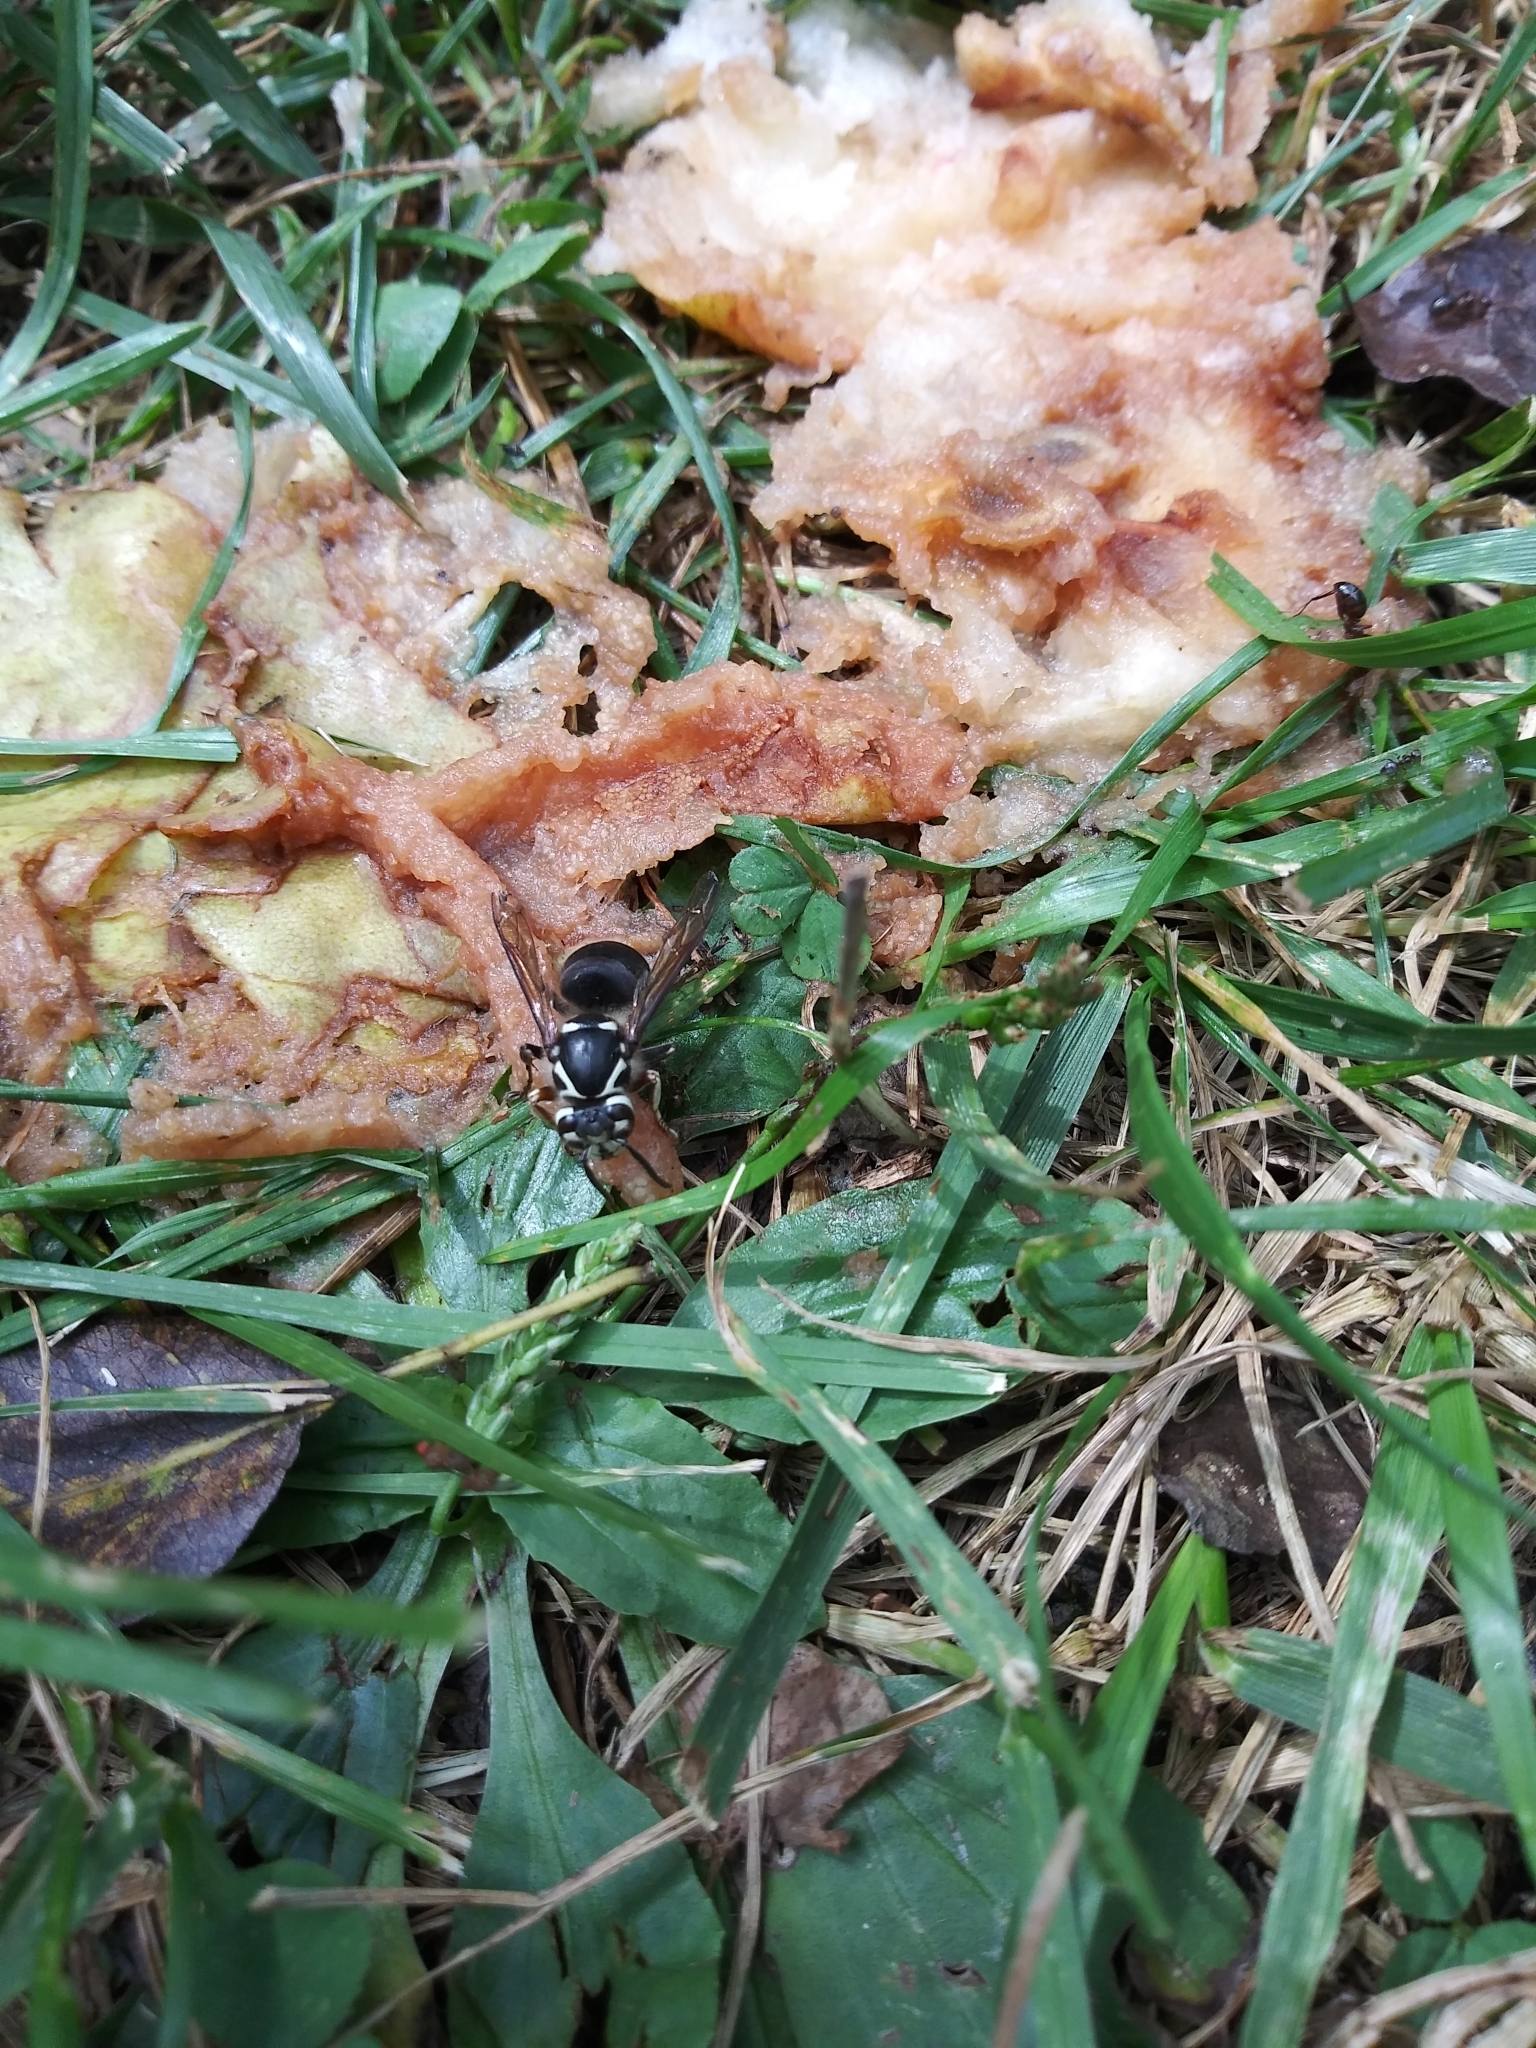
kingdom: Animalia
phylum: Arthropoda
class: Insecta
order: Hymenoptera
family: Vespidae
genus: Dolichovespula
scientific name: Dolichovespula maculata
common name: Bald-faced hornet
